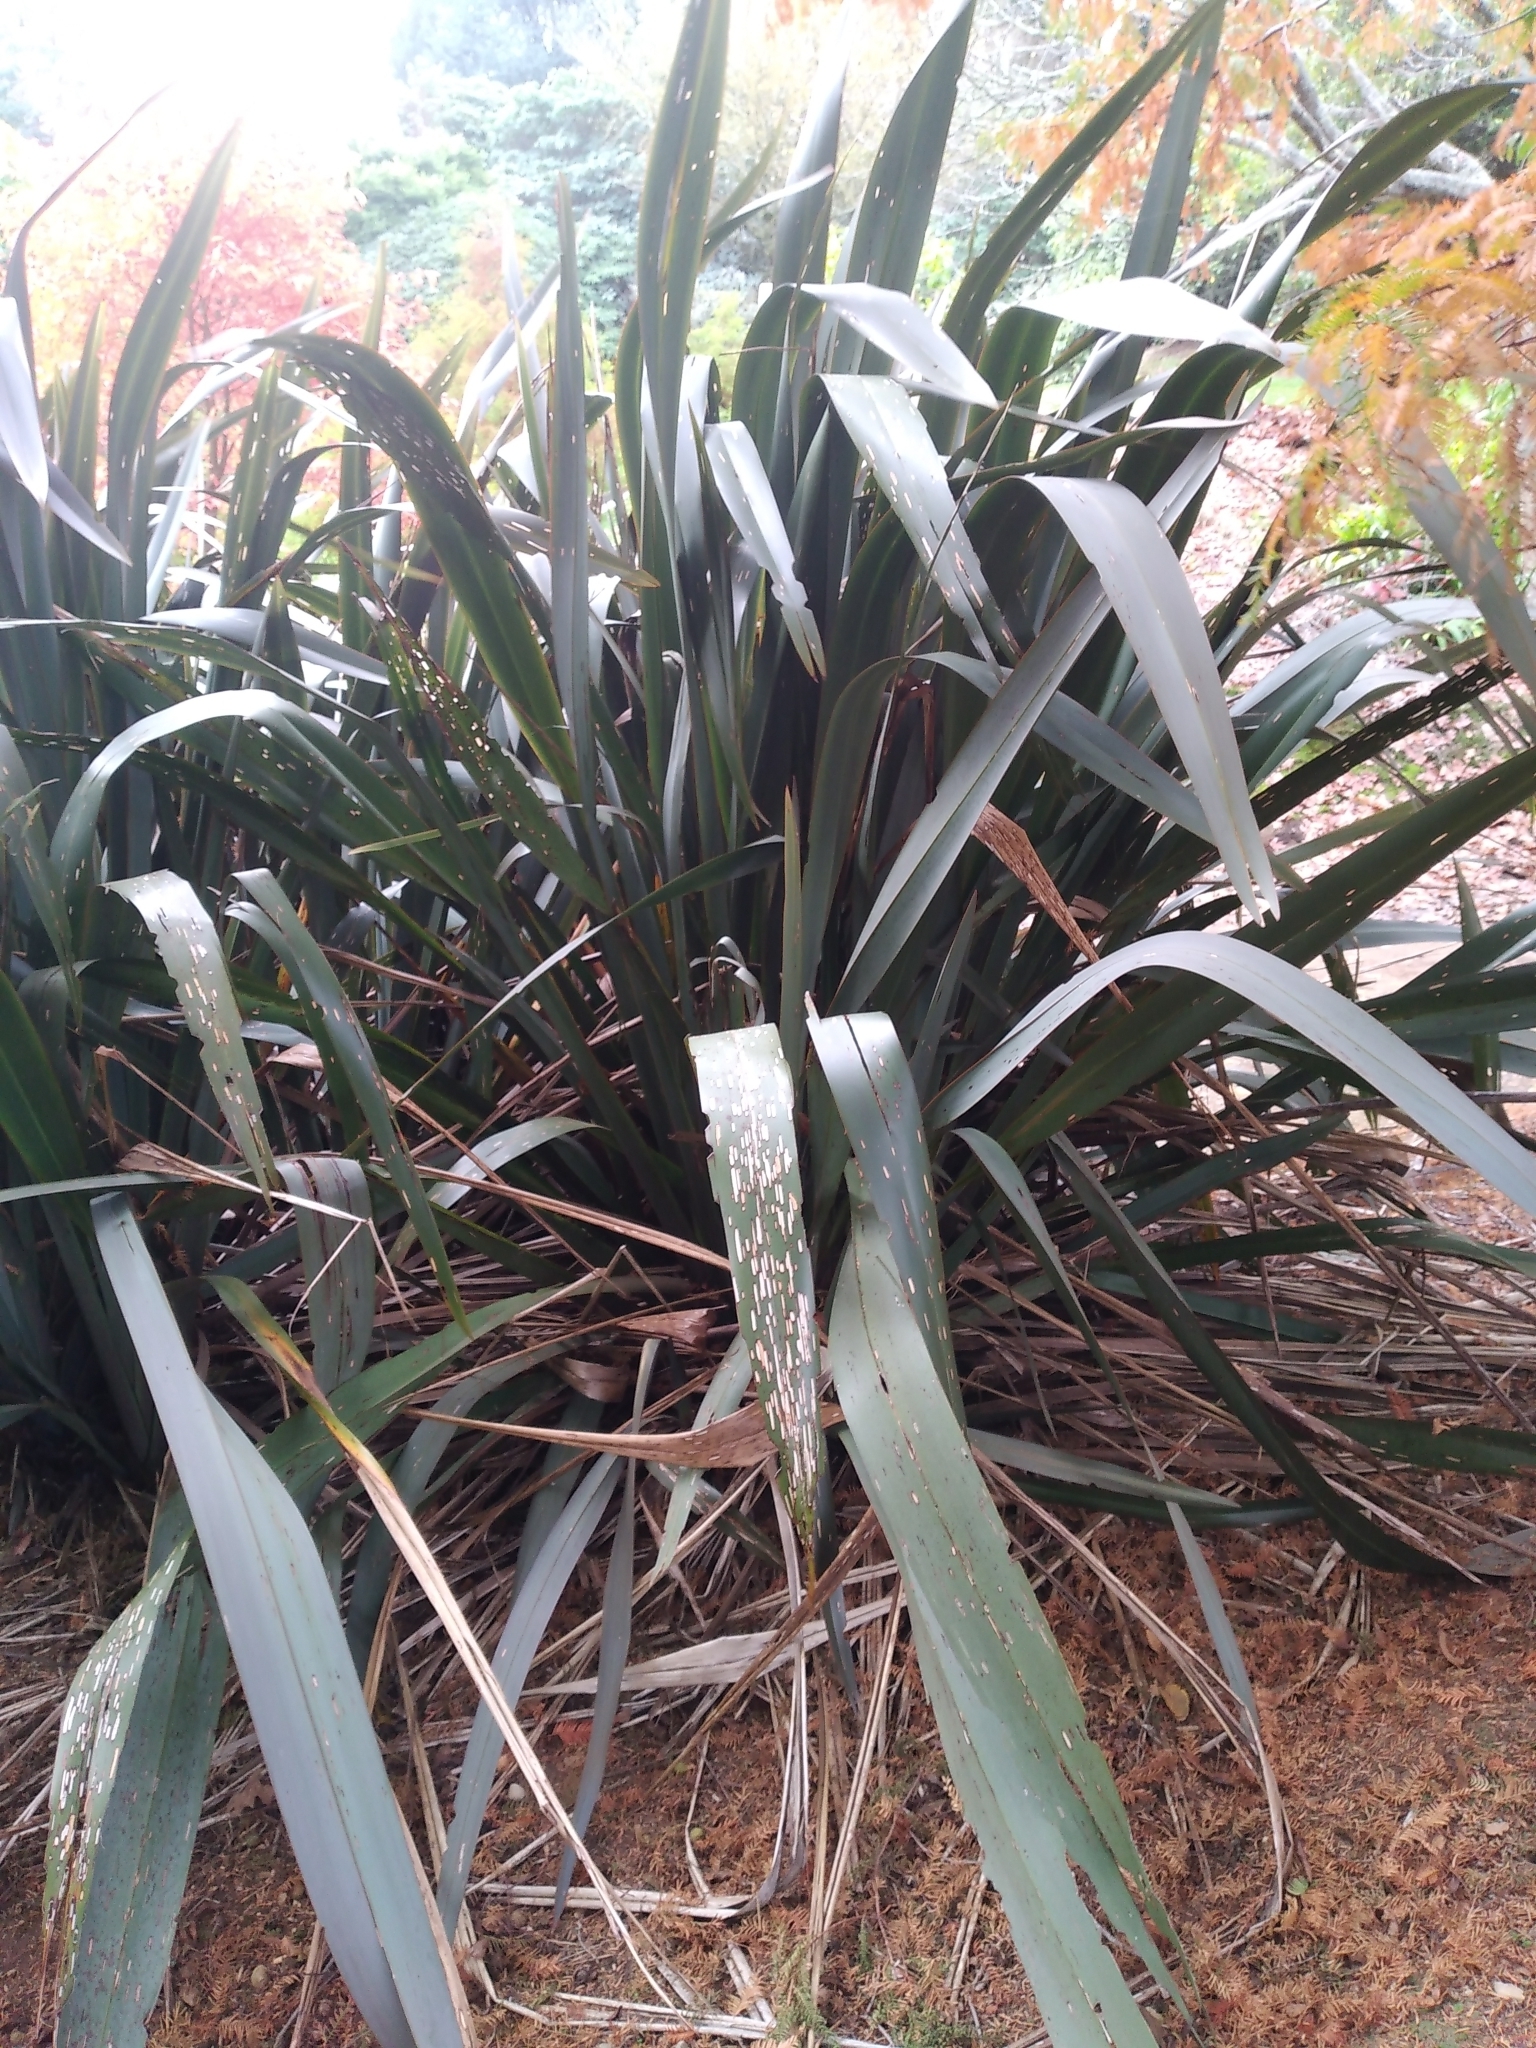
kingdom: Animalia
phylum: Arthropoda
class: Insecta
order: Lepidoptera
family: Noctuidae
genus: Ichneutica
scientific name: Ichneutica
